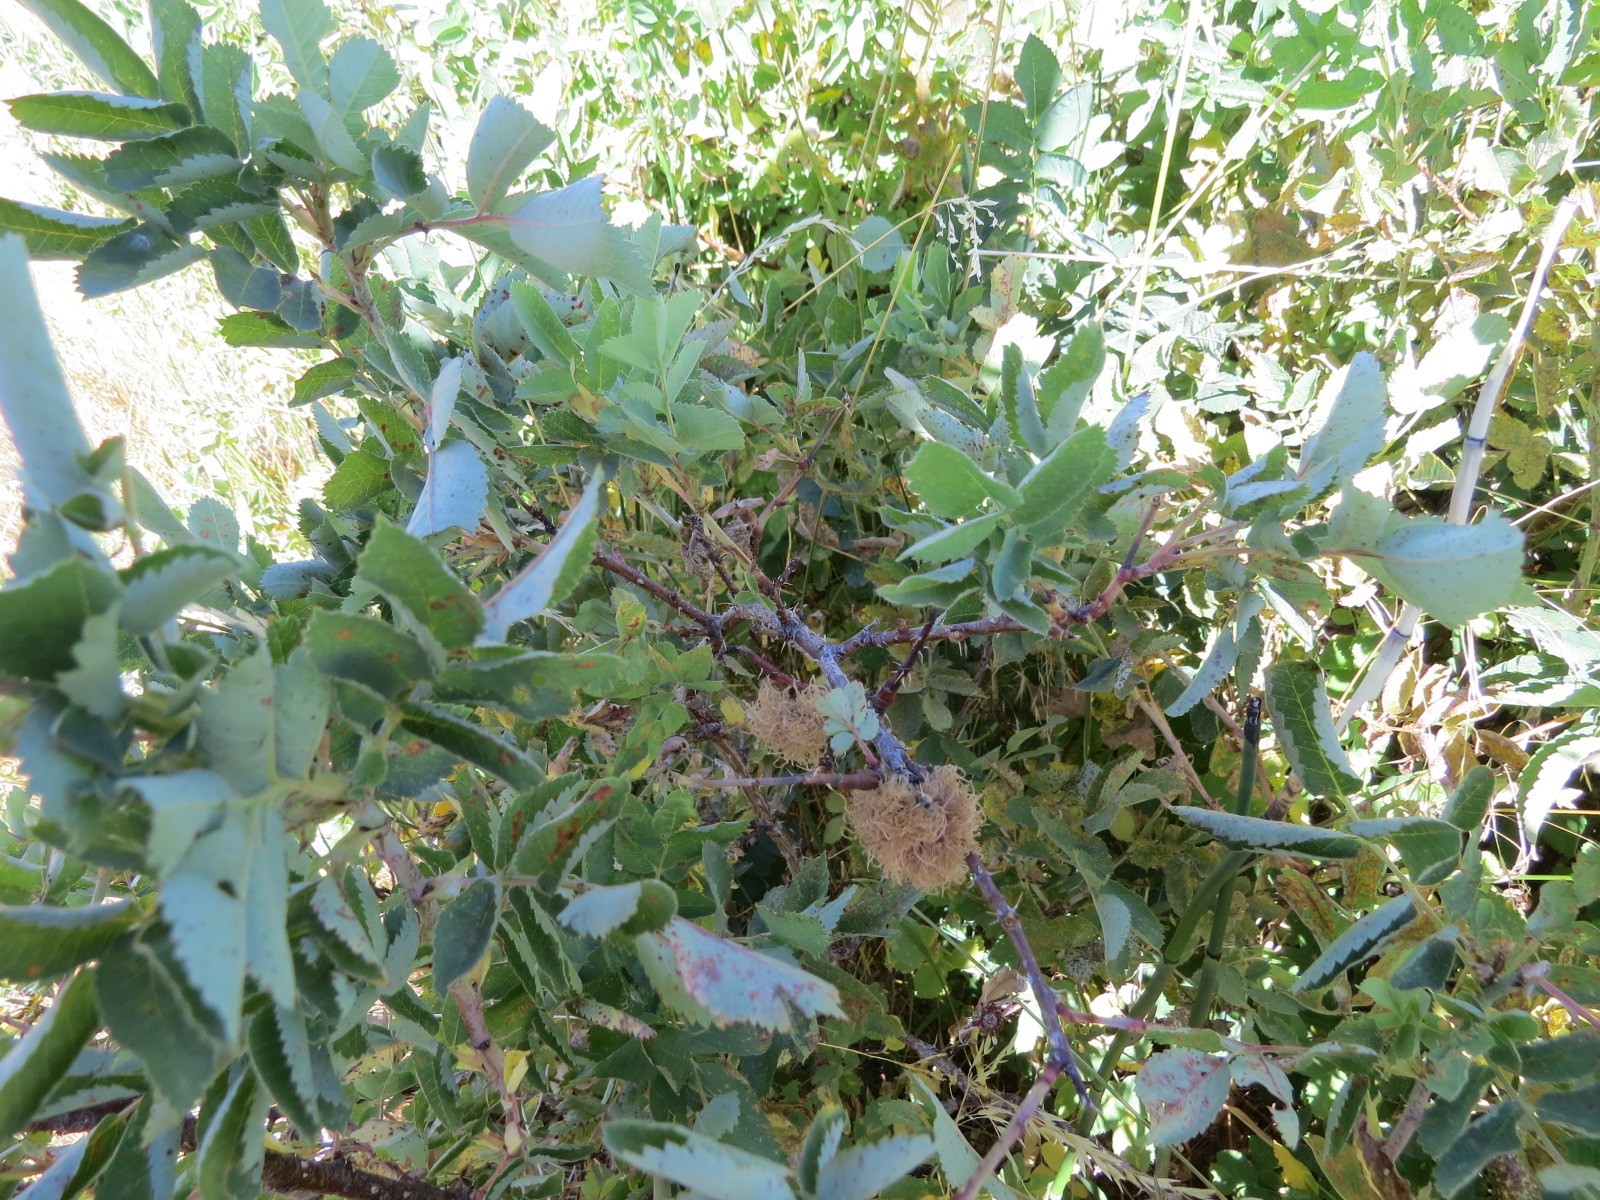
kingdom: Animalia
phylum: Arthropoda
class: Insecta
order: Hymenoptera
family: Cynipidae
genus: Diplolepis
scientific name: Diplolepis rosae
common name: Bedeguar gall
